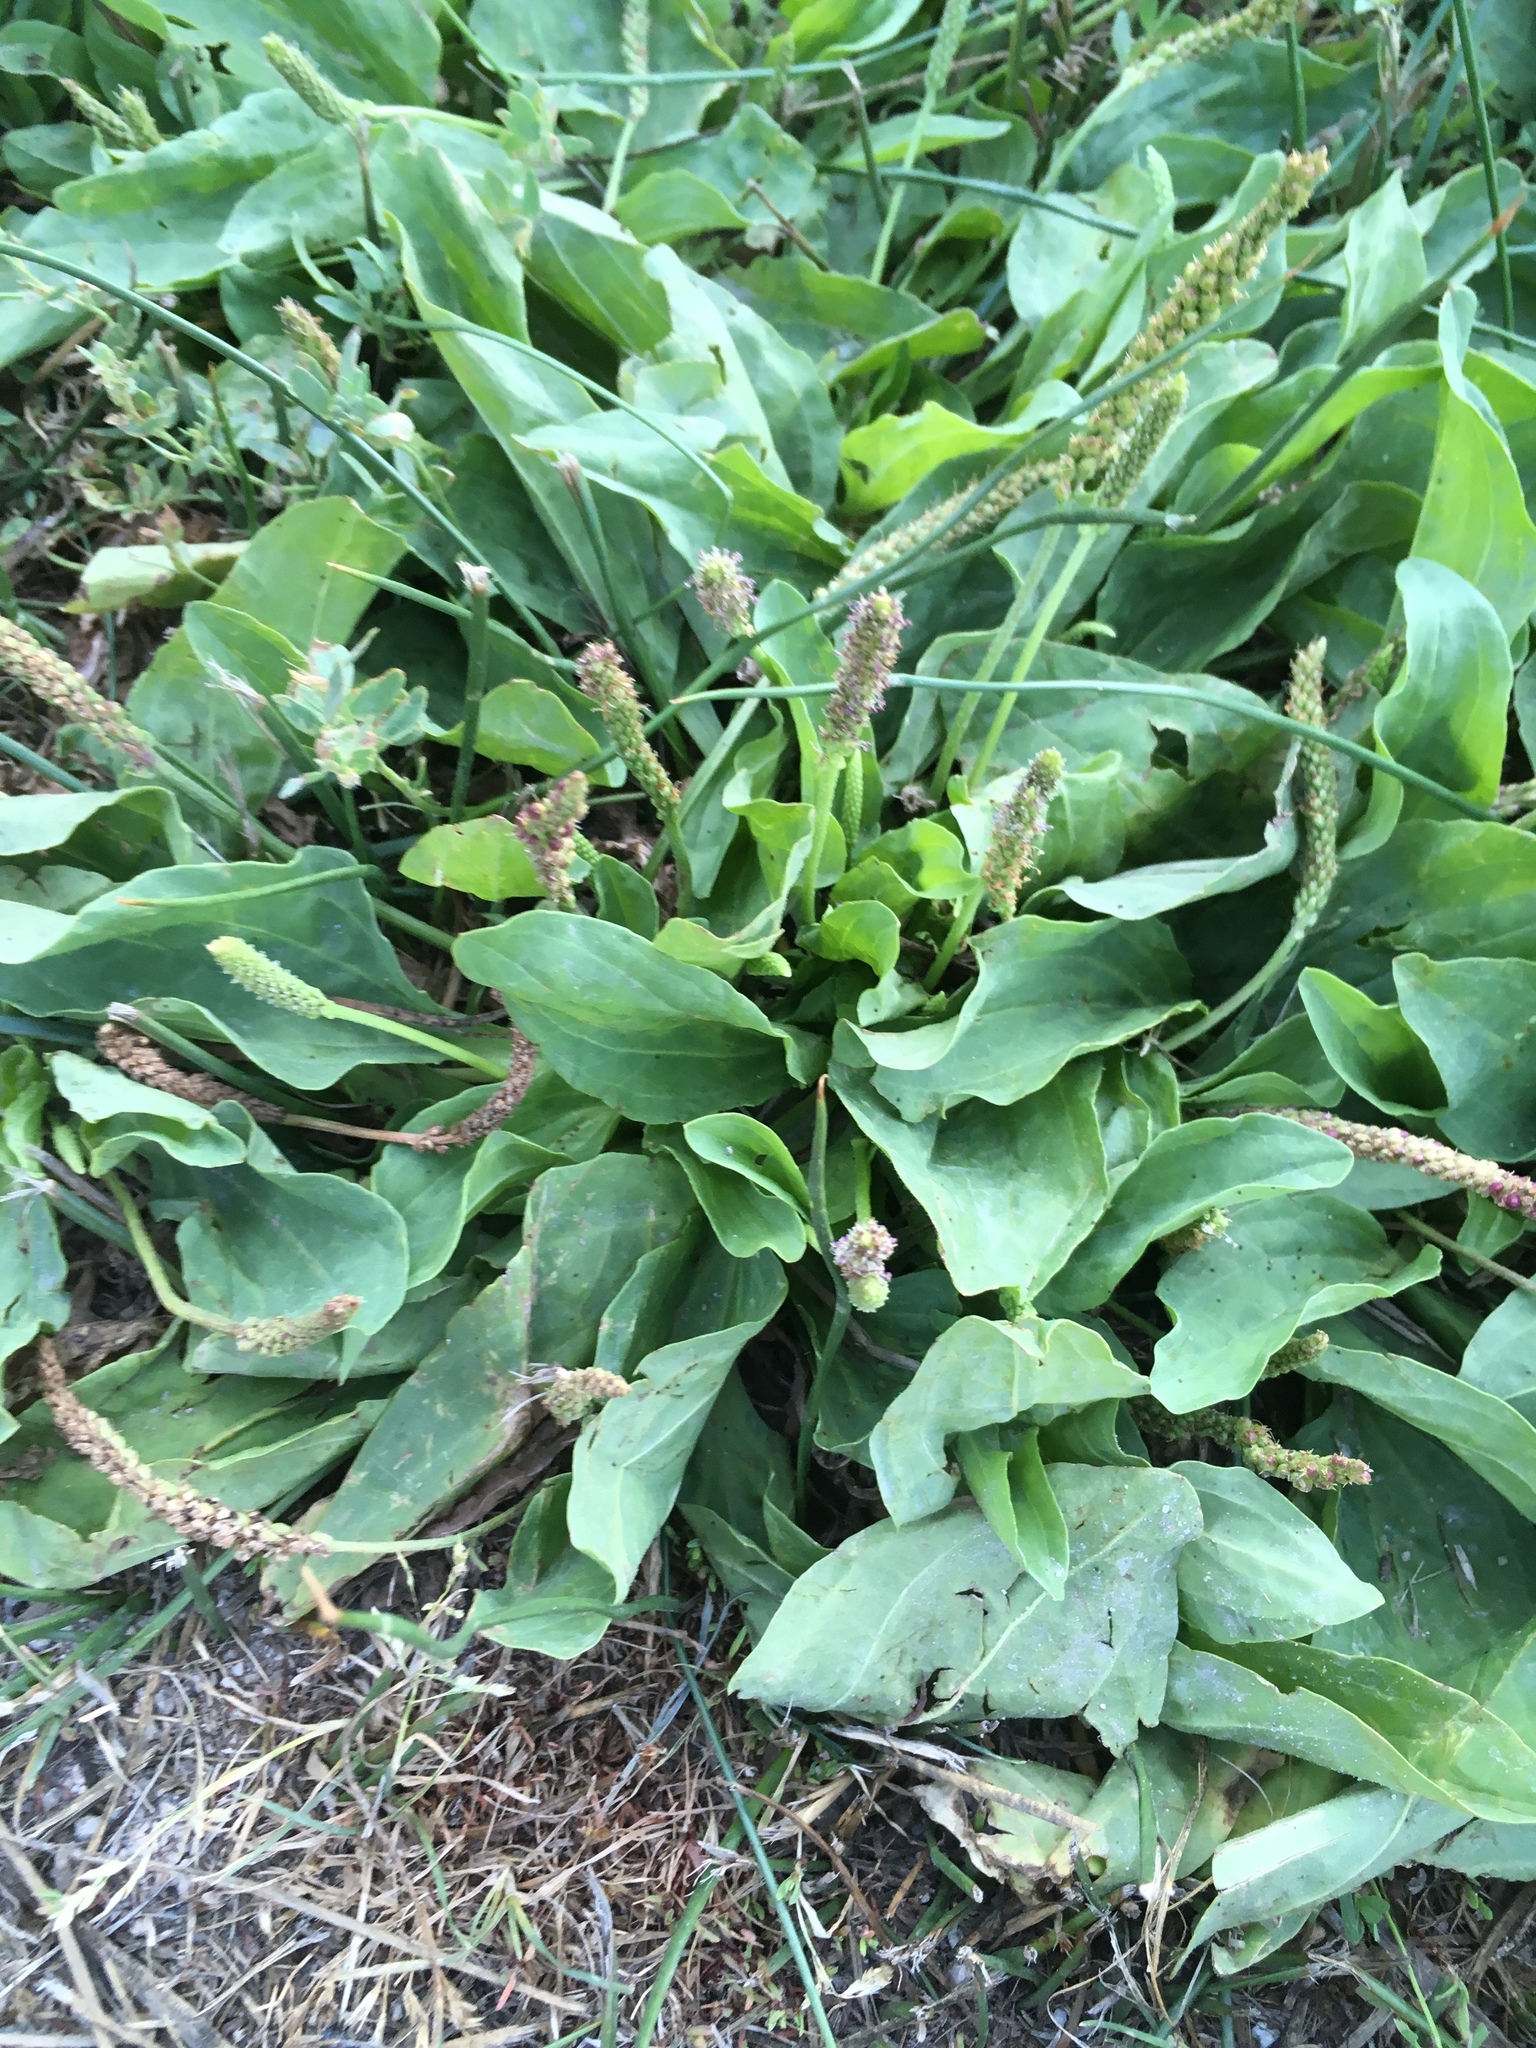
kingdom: Plantae
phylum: Tracheophyta
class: Magnoliopsida
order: Lamiales
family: Plantaginaceae
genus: Plantago
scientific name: Plantago major
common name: Common plantain
